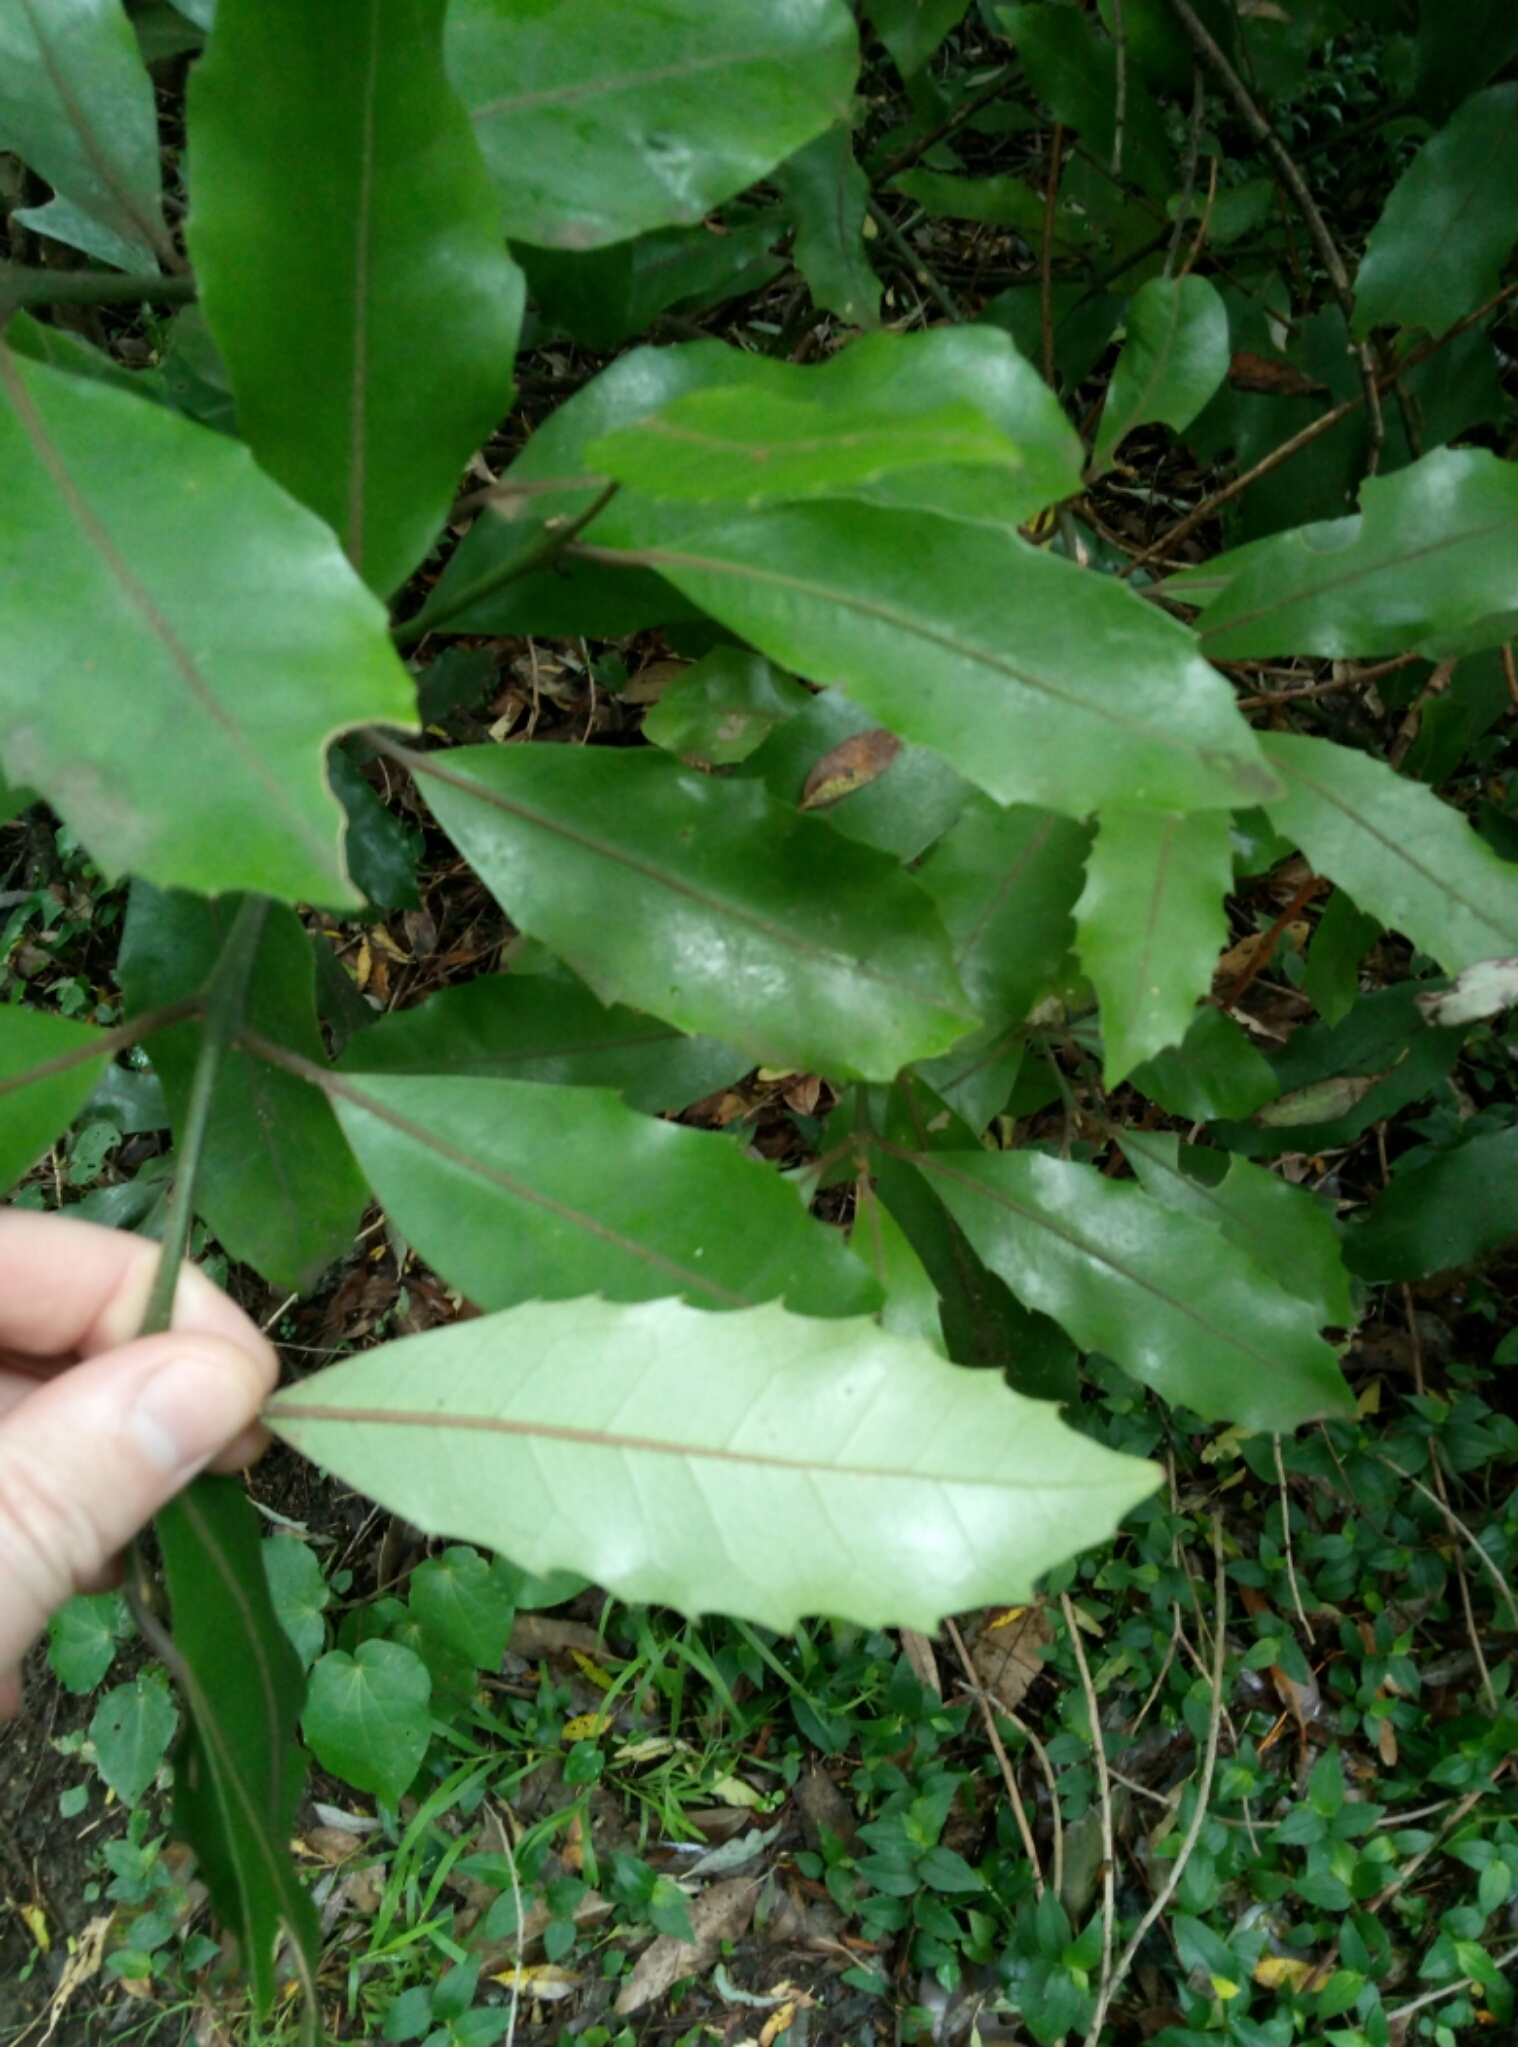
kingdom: Plantae
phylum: Tracheophyta
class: Magnoliopsida
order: Laurales
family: Monimiaceae
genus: Hedycarya
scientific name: Hedycarya arborea
